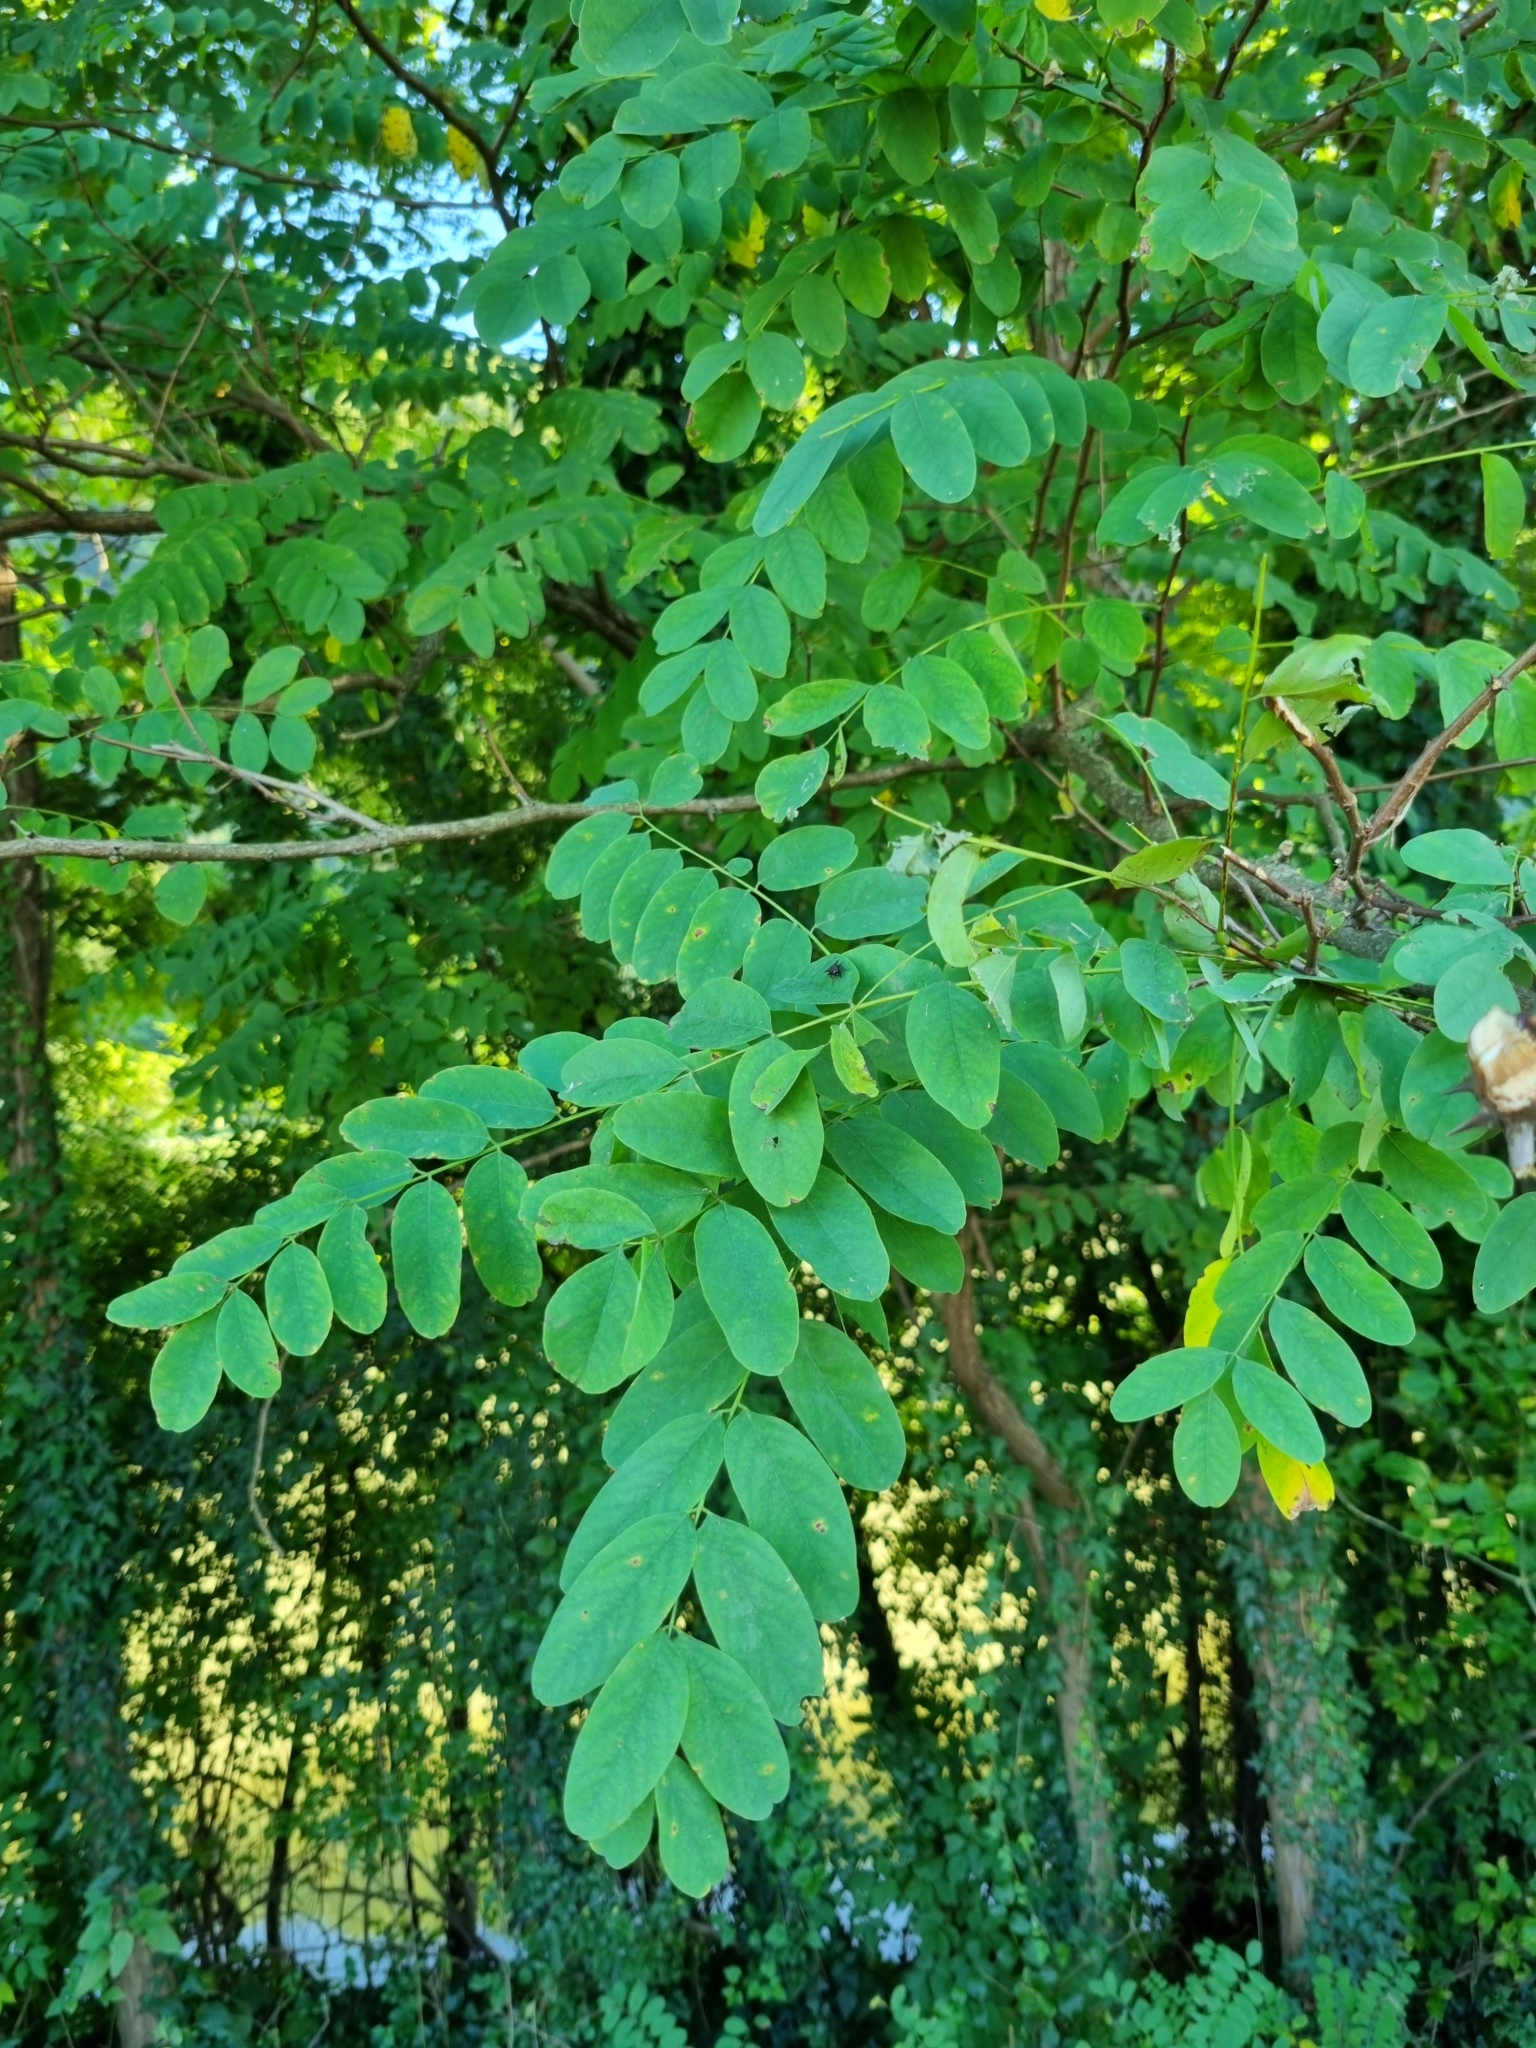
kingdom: Plantae
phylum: Tracheophyta
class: Magnoliopsida
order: Fabales
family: Fabaceae
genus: Robinia
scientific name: Robinia pseudoacacia
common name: Black locust
